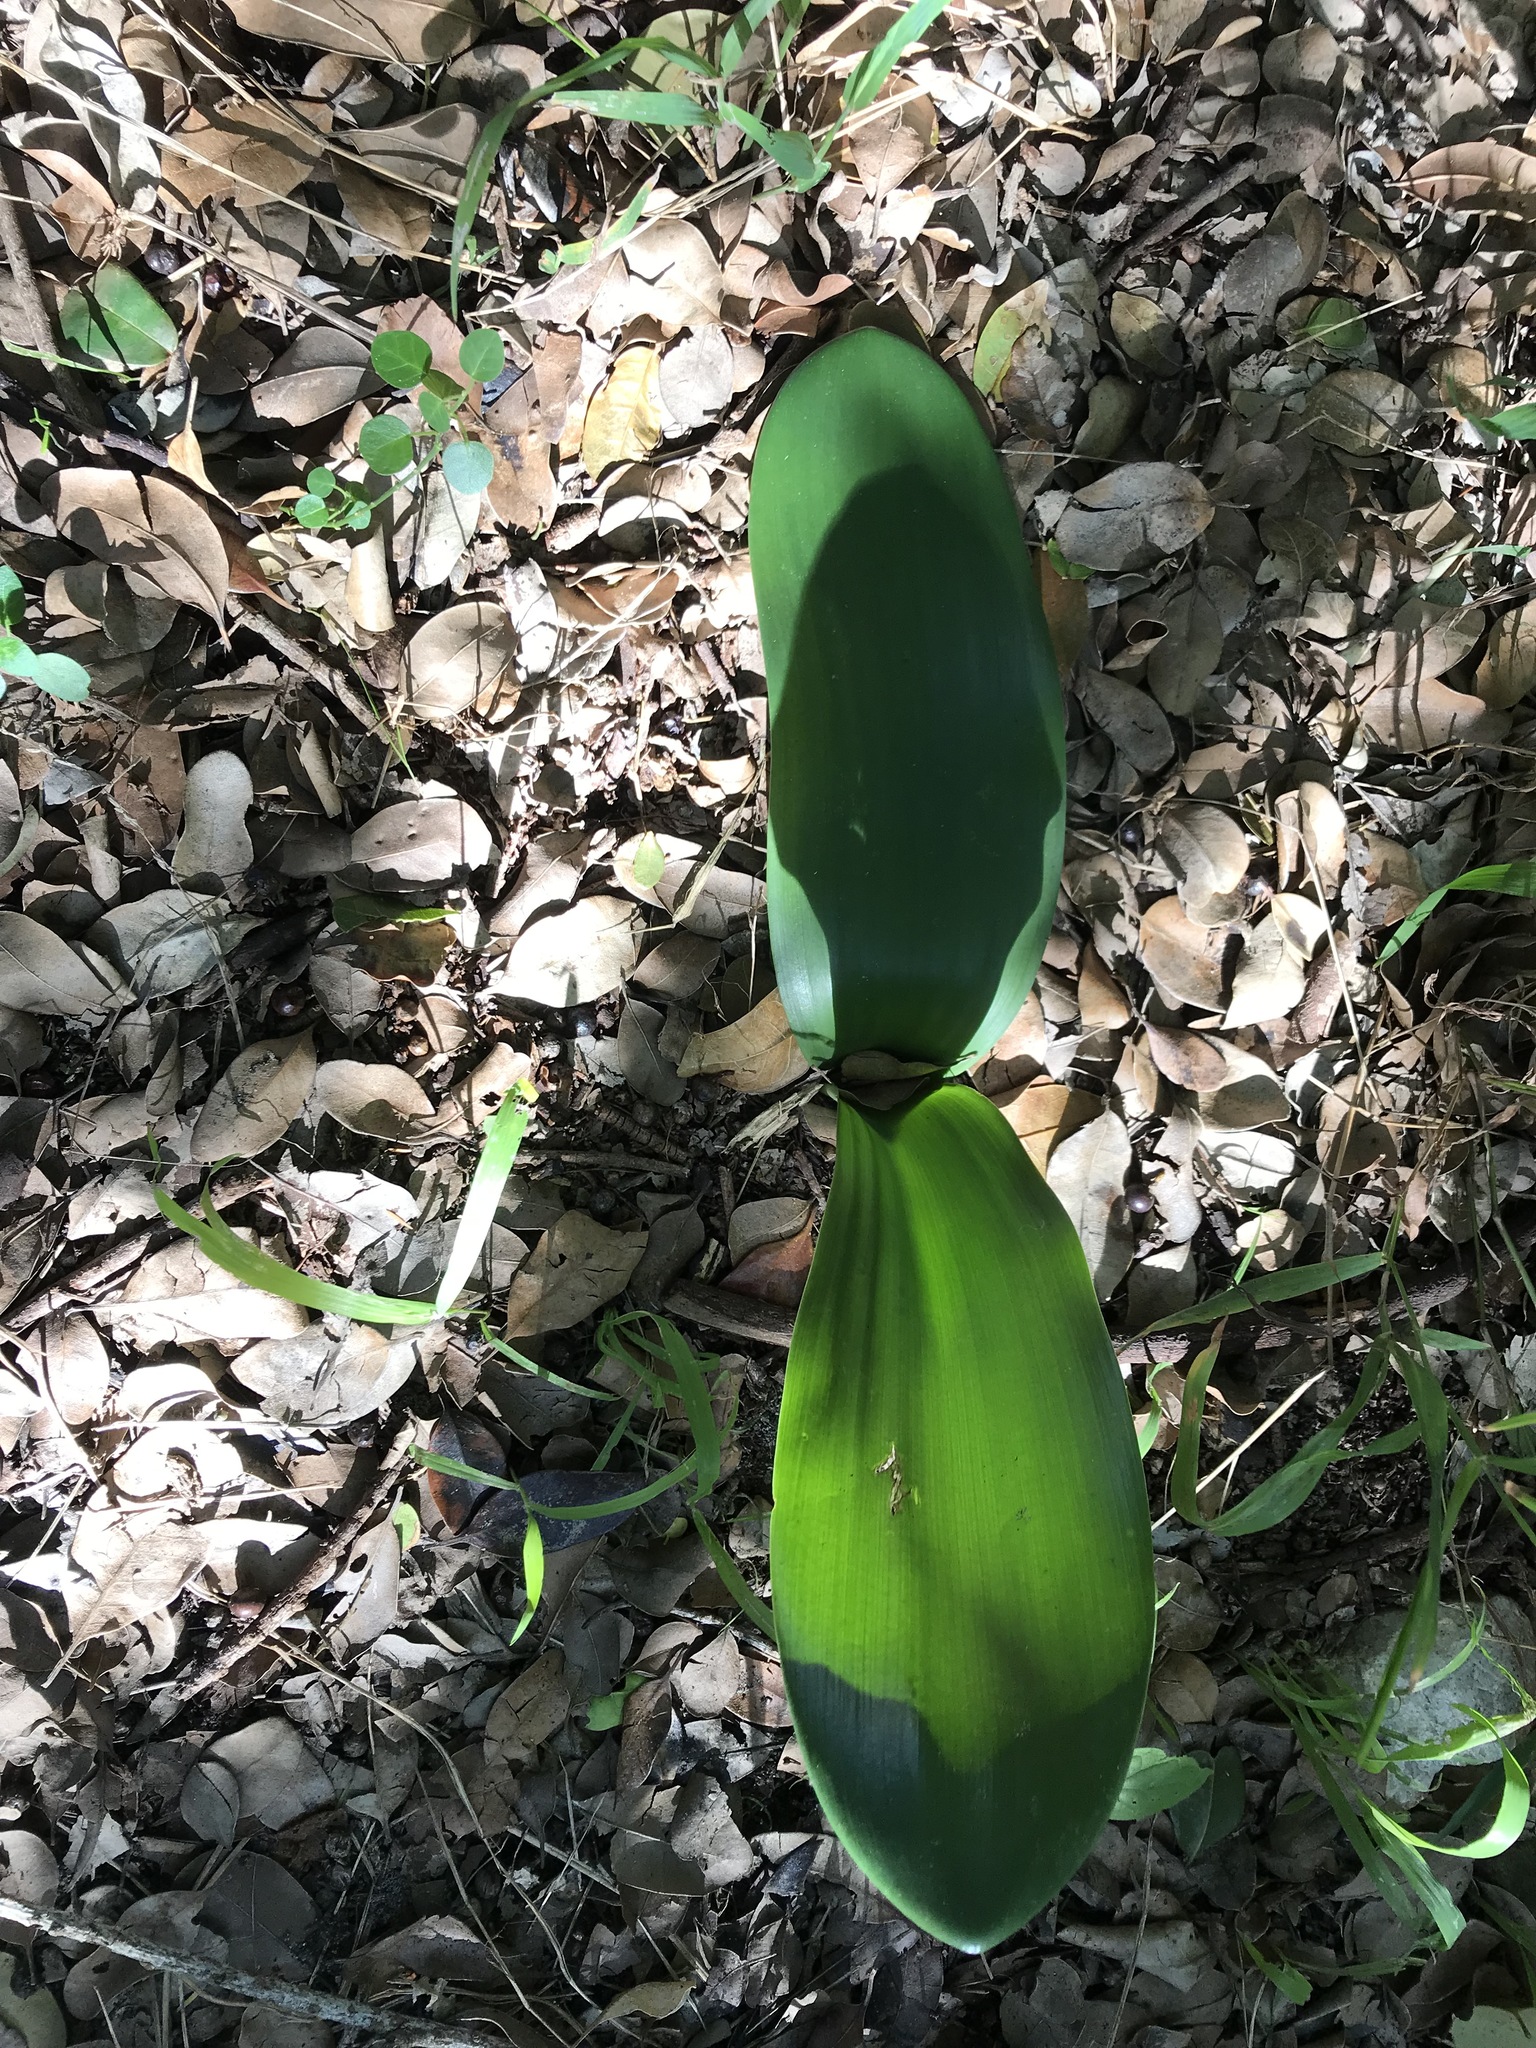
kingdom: Plantae
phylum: Tracheophyta
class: Liliopsida
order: Asparagales
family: Asparagaceae
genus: Lachenalia
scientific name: Lachenalia bulbifera
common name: Red lachenalia
